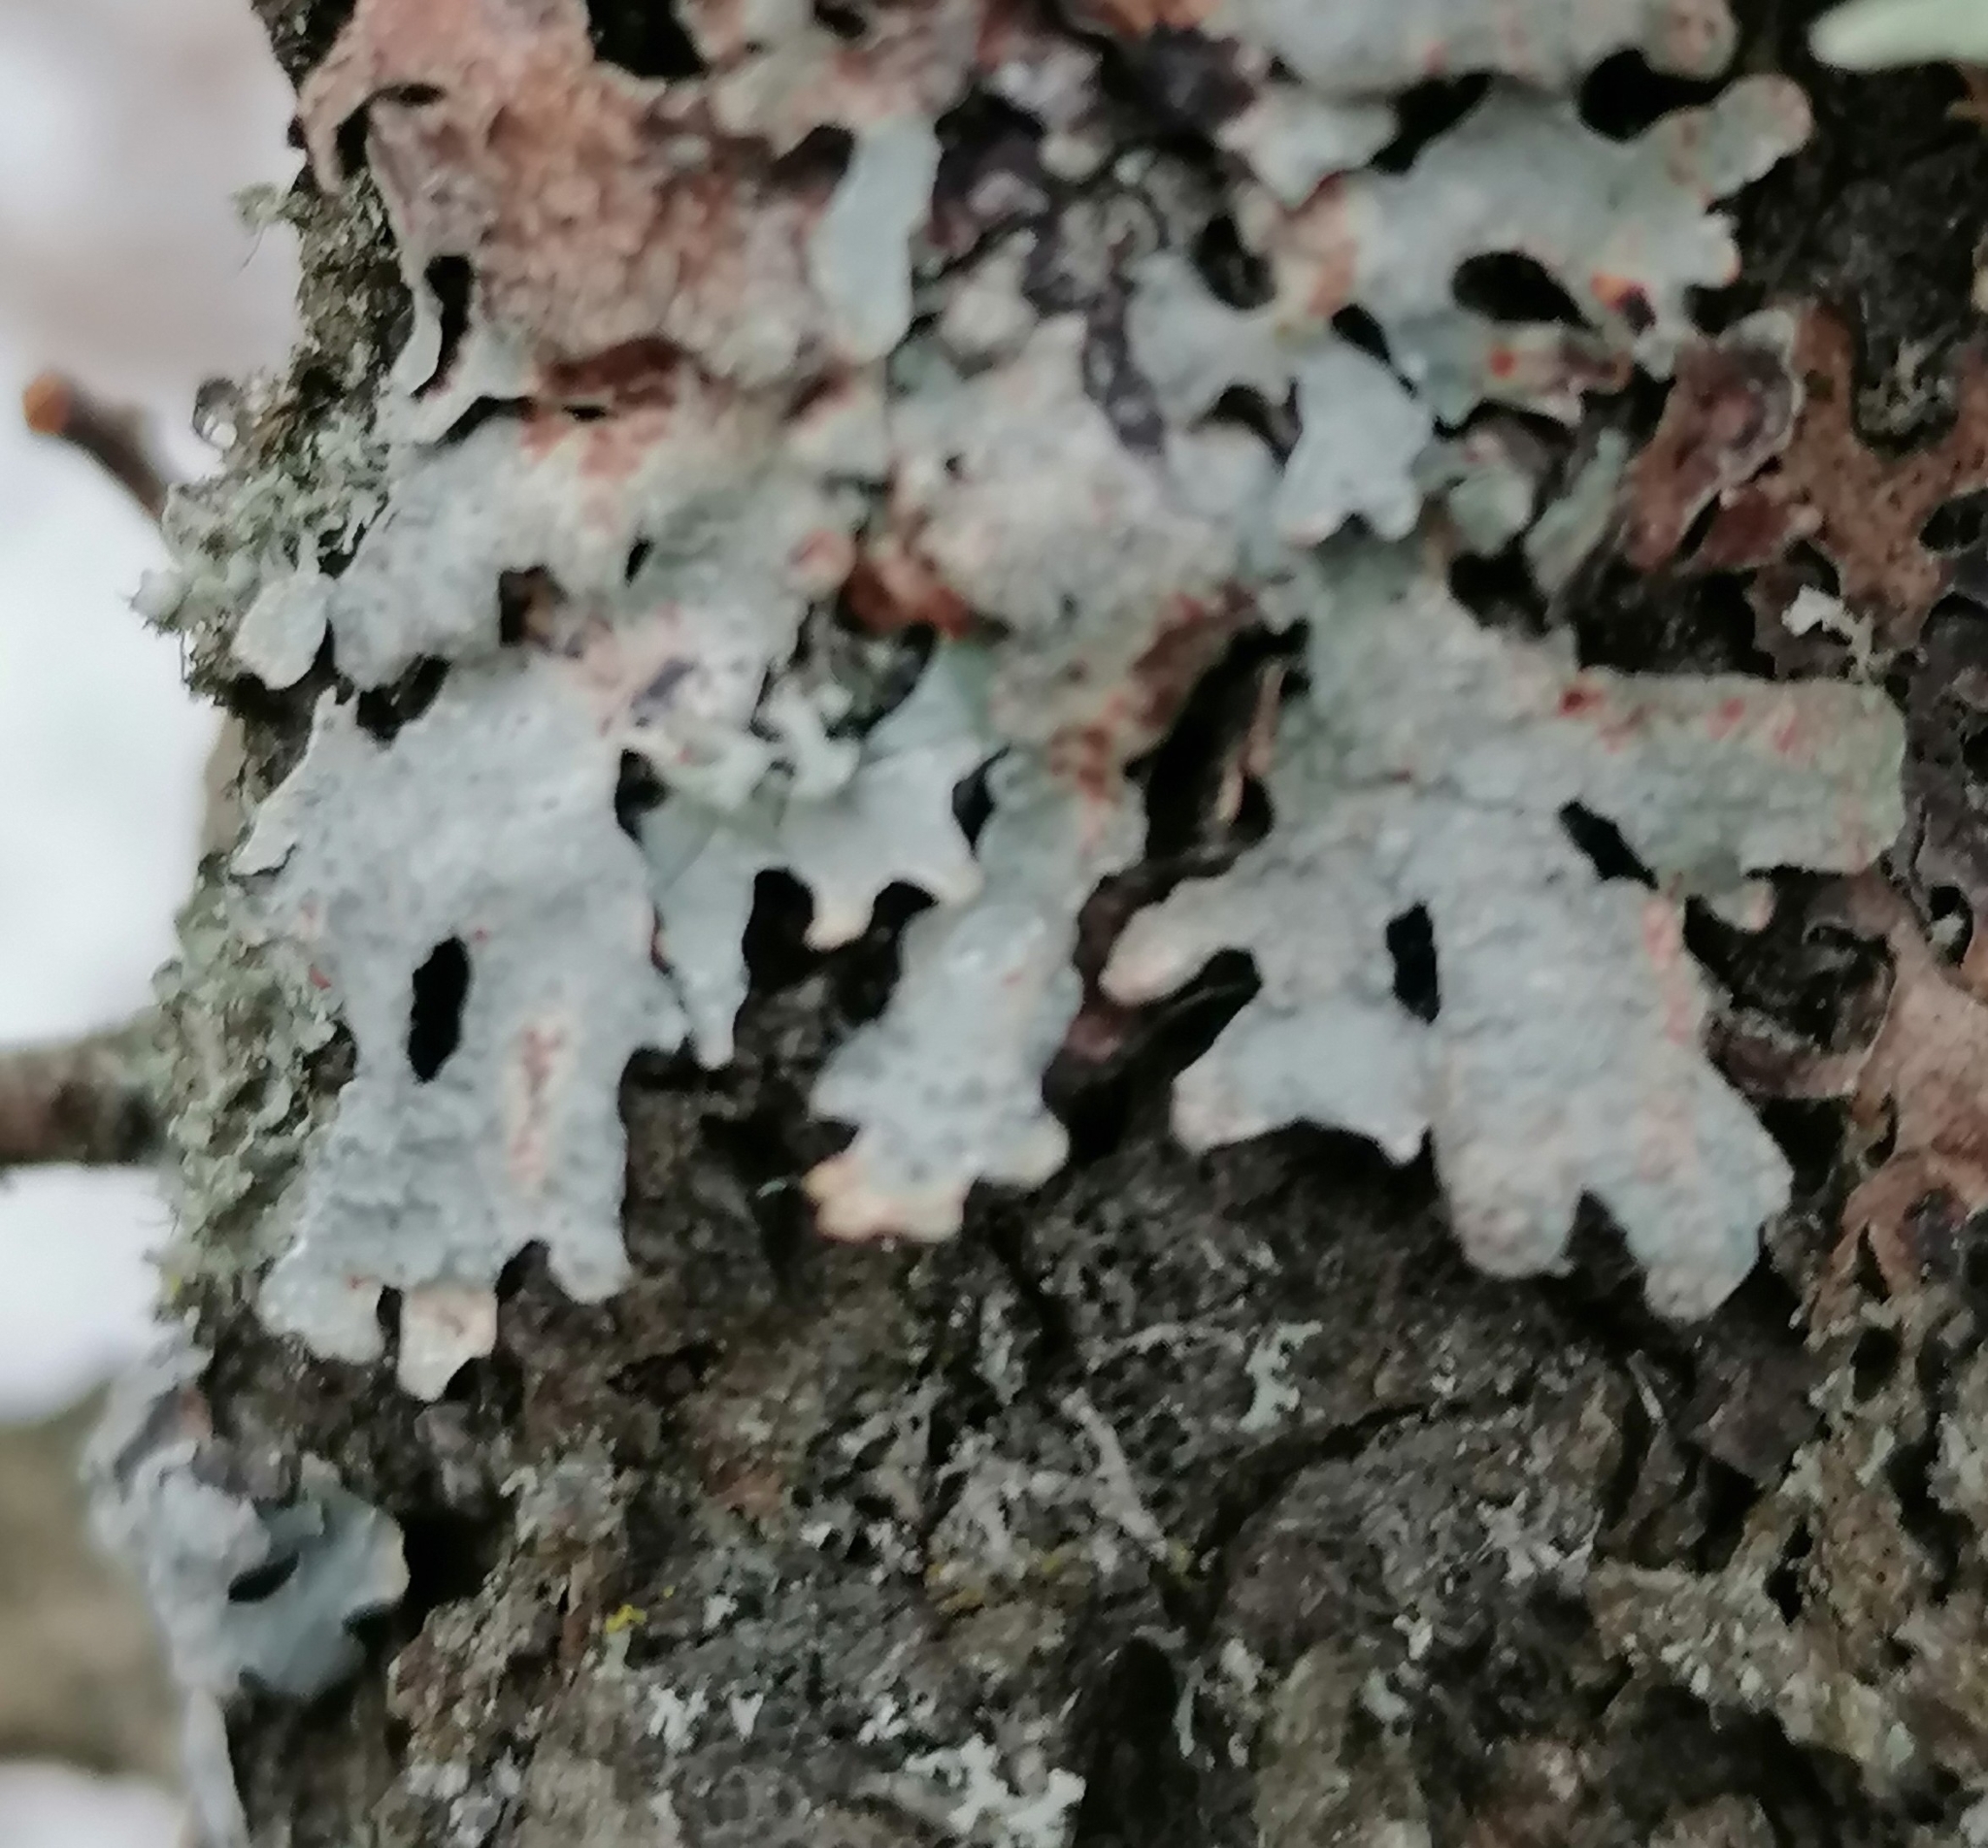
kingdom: Fungi
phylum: Ascomycota
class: Lecanoromycetes
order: Lecanorales
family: Parmeliaceae
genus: Parmelia
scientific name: Parmelia sulcata
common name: Netted shield lichen
